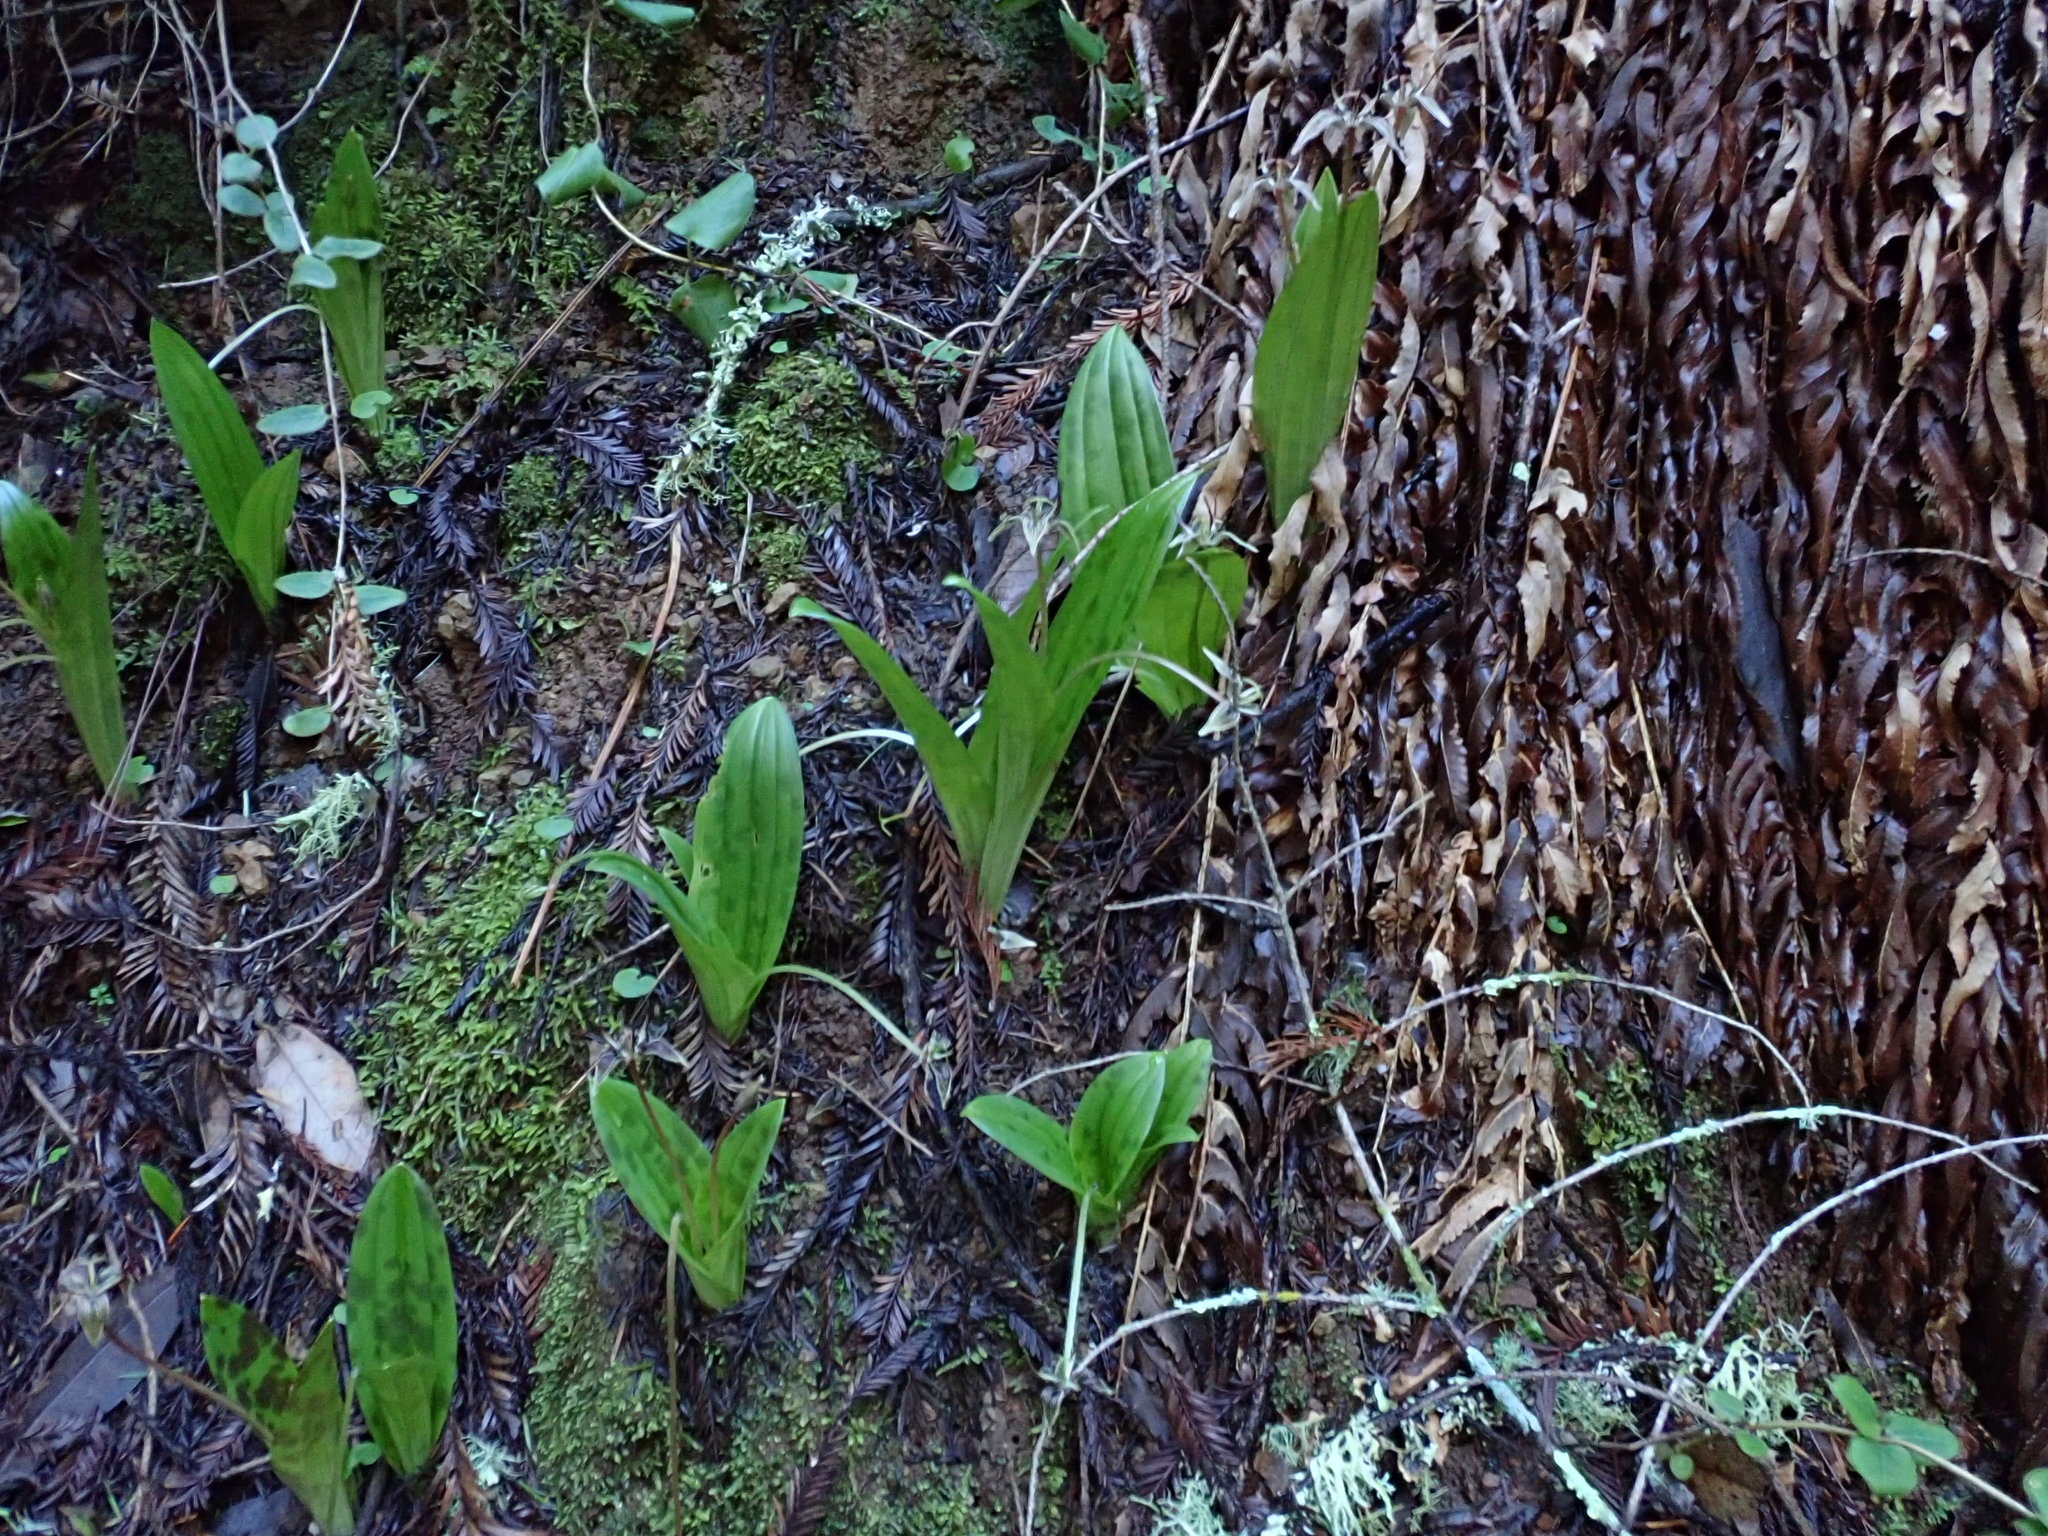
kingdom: Plantae
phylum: Tracheophyta
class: Liliopsida
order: Liliales
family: Liliaceae
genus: Scoliopus
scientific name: Scoliopus bigelovii
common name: Foetid adder's-tongue
